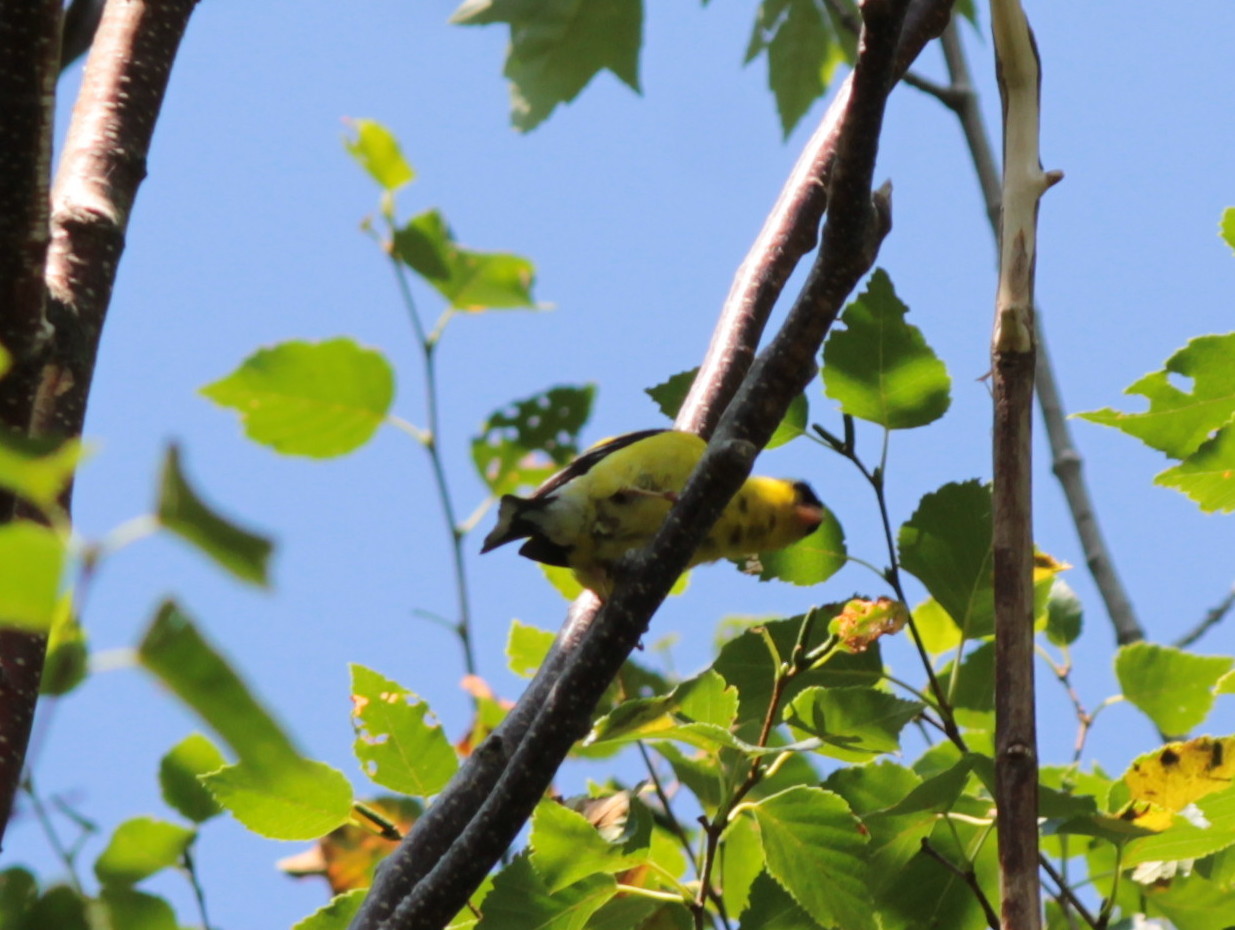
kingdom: Animalia
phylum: Chordata
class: Aves
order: Passeriformes
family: Fringillidae
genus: Spinus
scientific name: Spinus tristis
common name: American goldfinch
